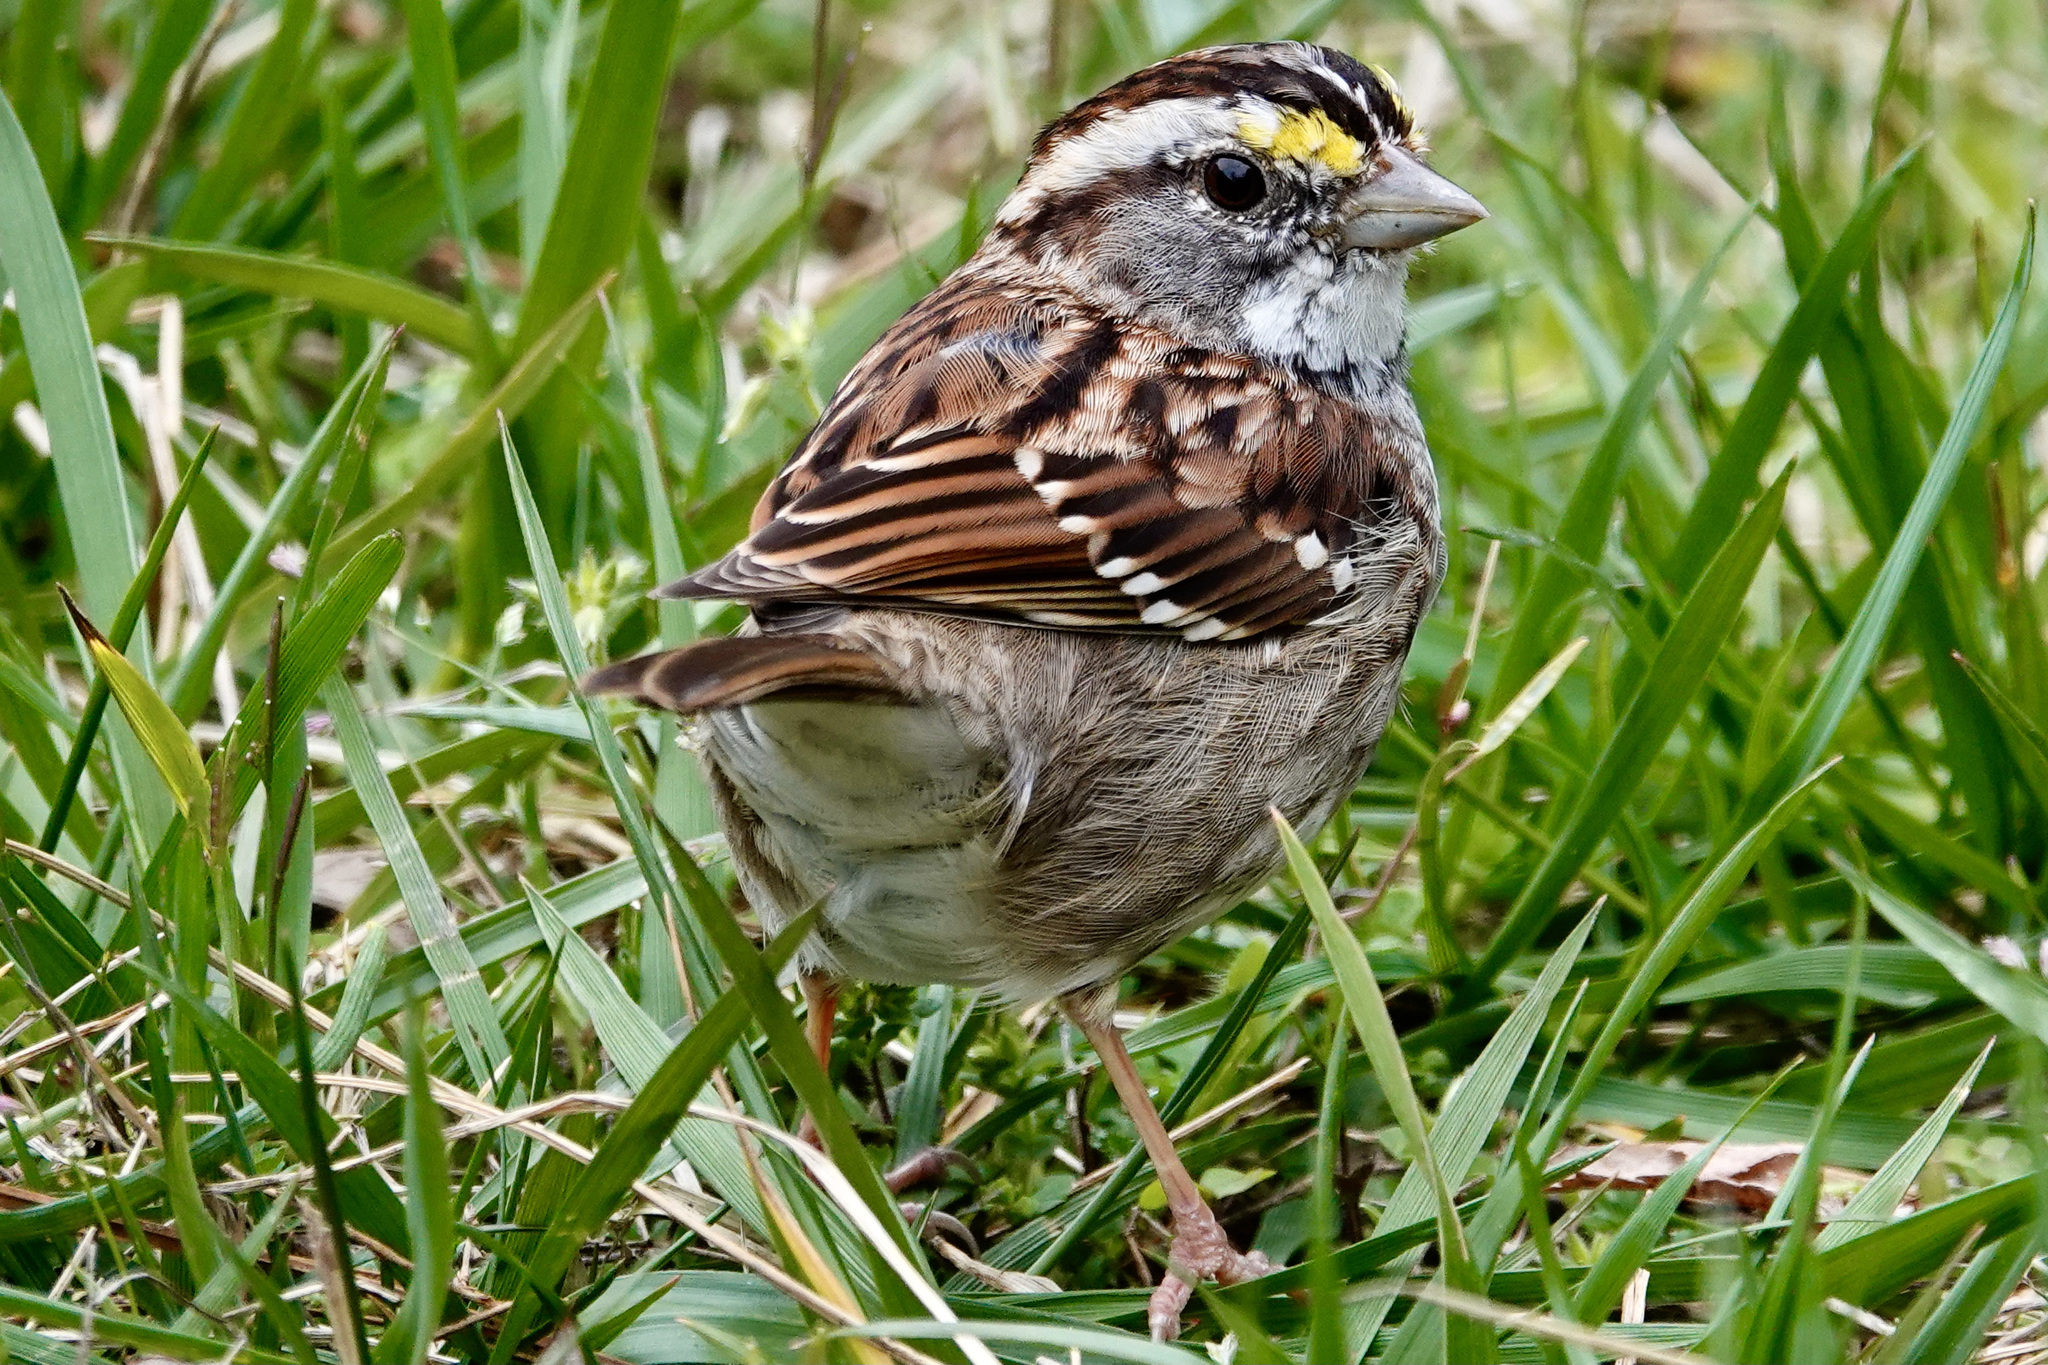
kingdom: Animalia
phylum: Chordata
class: Aves
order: Passeriformes
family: Passerellidae
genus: Zonotrichia
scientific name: Zonotrichia albicollis
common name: White-throated sparrow
